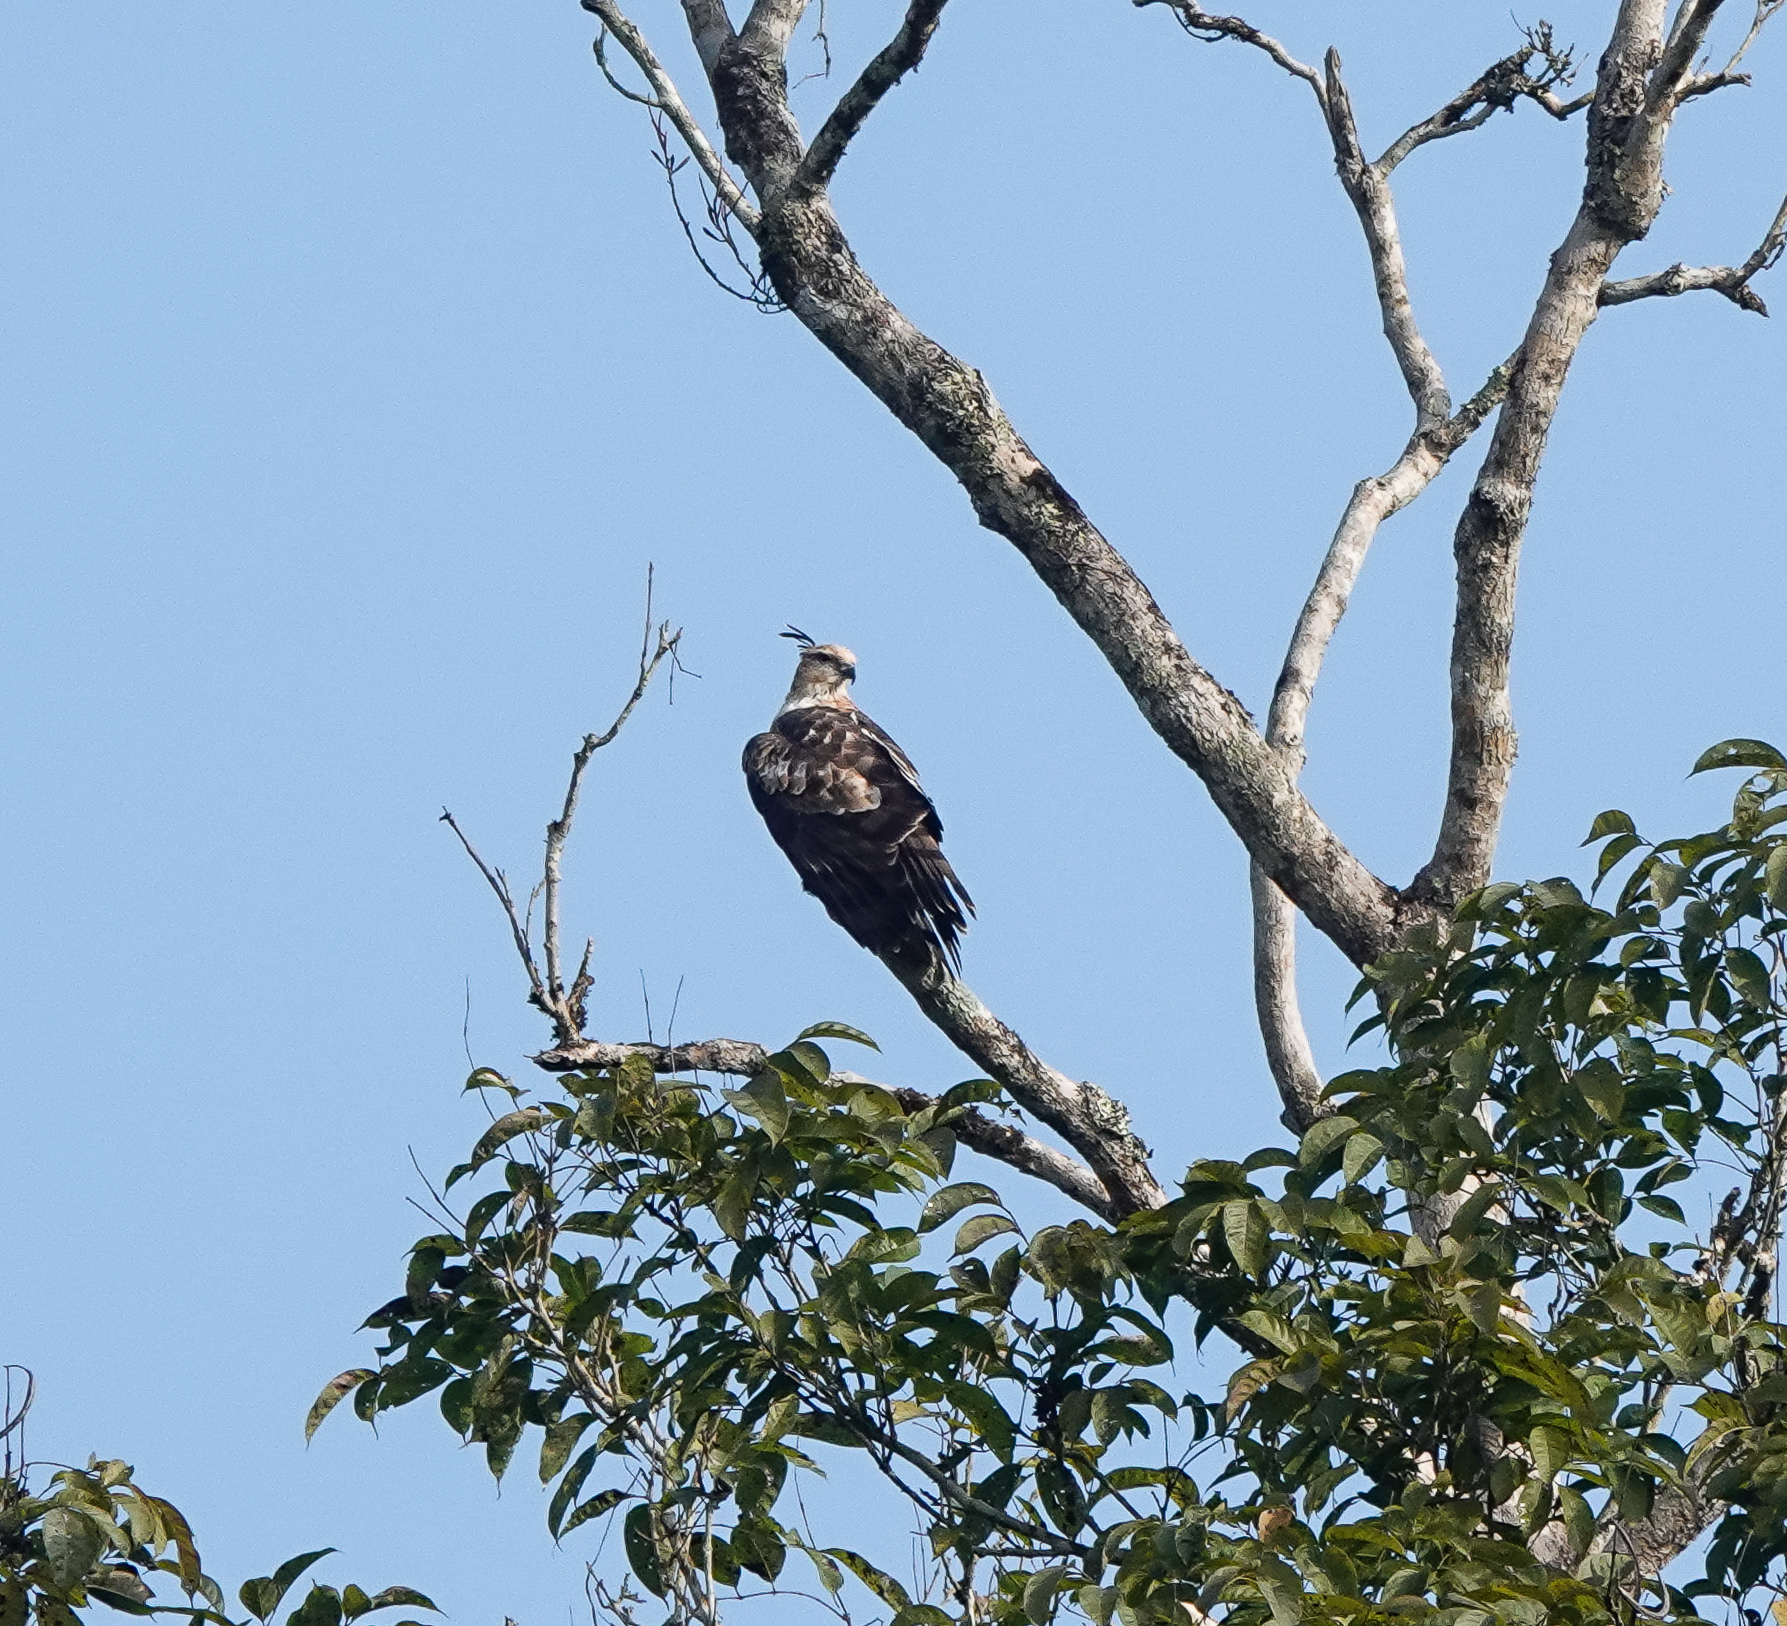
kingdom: Animalia
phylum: Chordata
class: Aves
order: Accipitriformes
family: Accipitridae
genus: Aviceda
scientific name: Aviceda jerdoni
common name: Jerdon's baza
